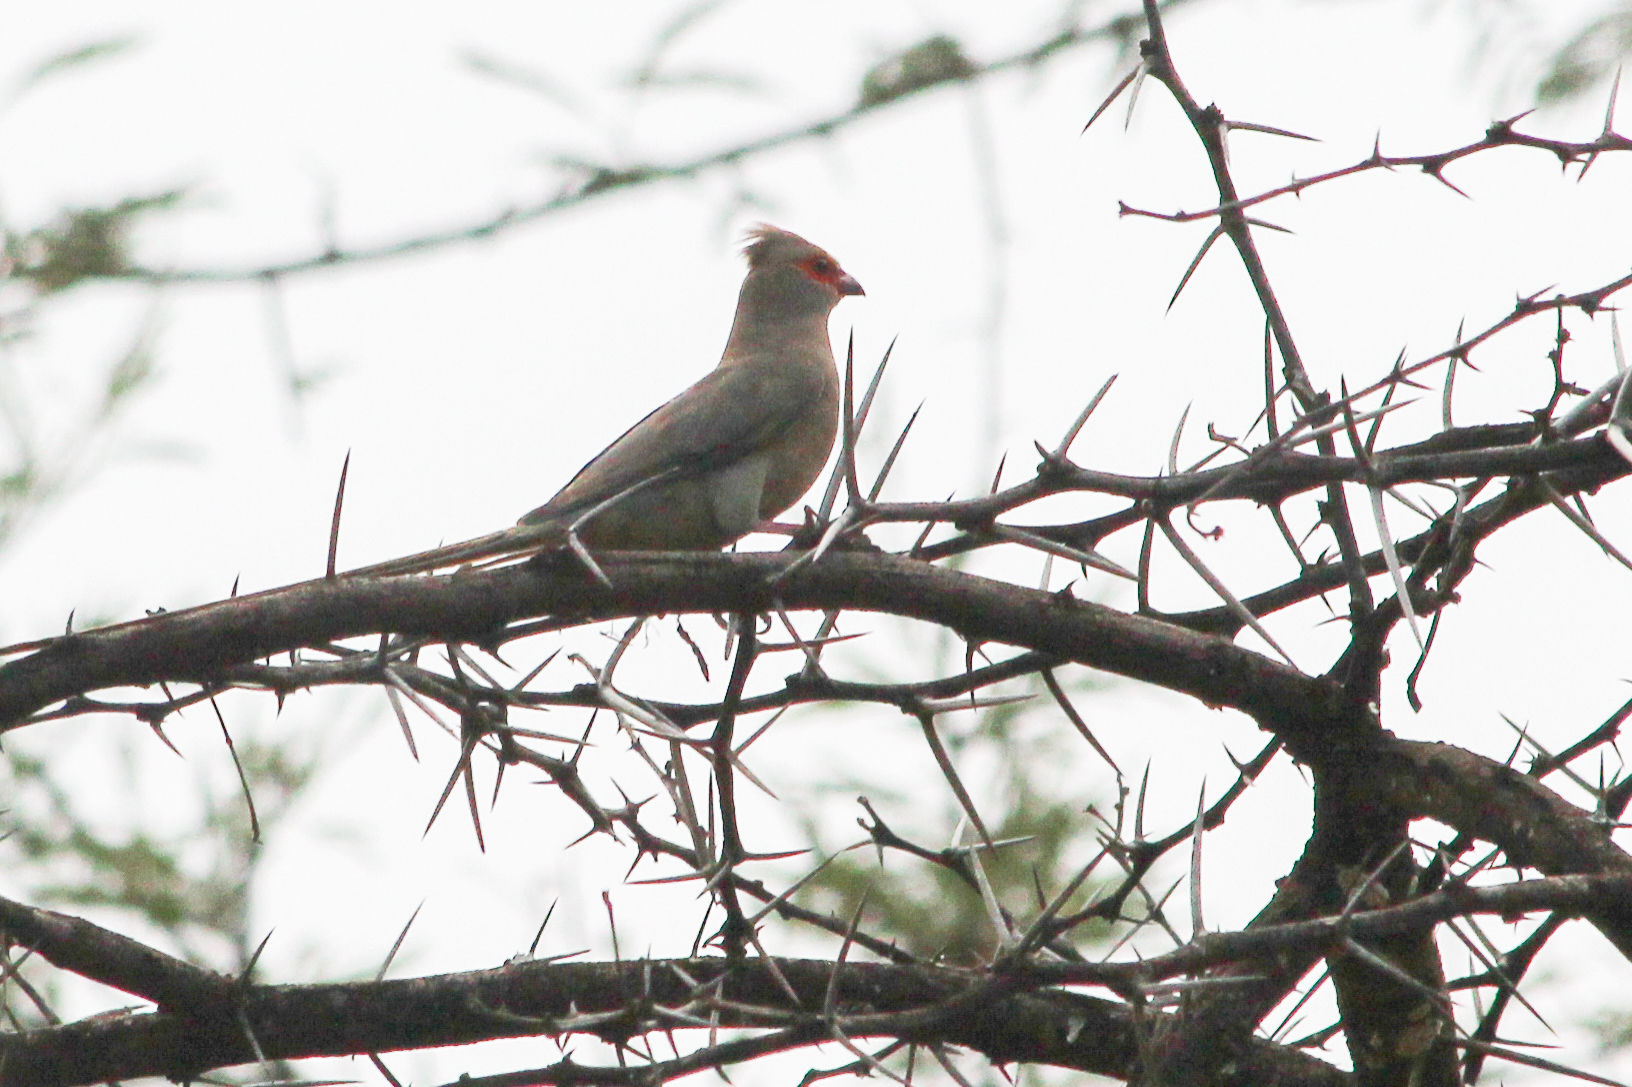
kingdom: Animalia
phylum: Chordata
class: Aves
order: Coliiformes
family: Coliidae
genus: Urocolius
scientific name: Urocolius indicus
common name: Red-faced mousebird
